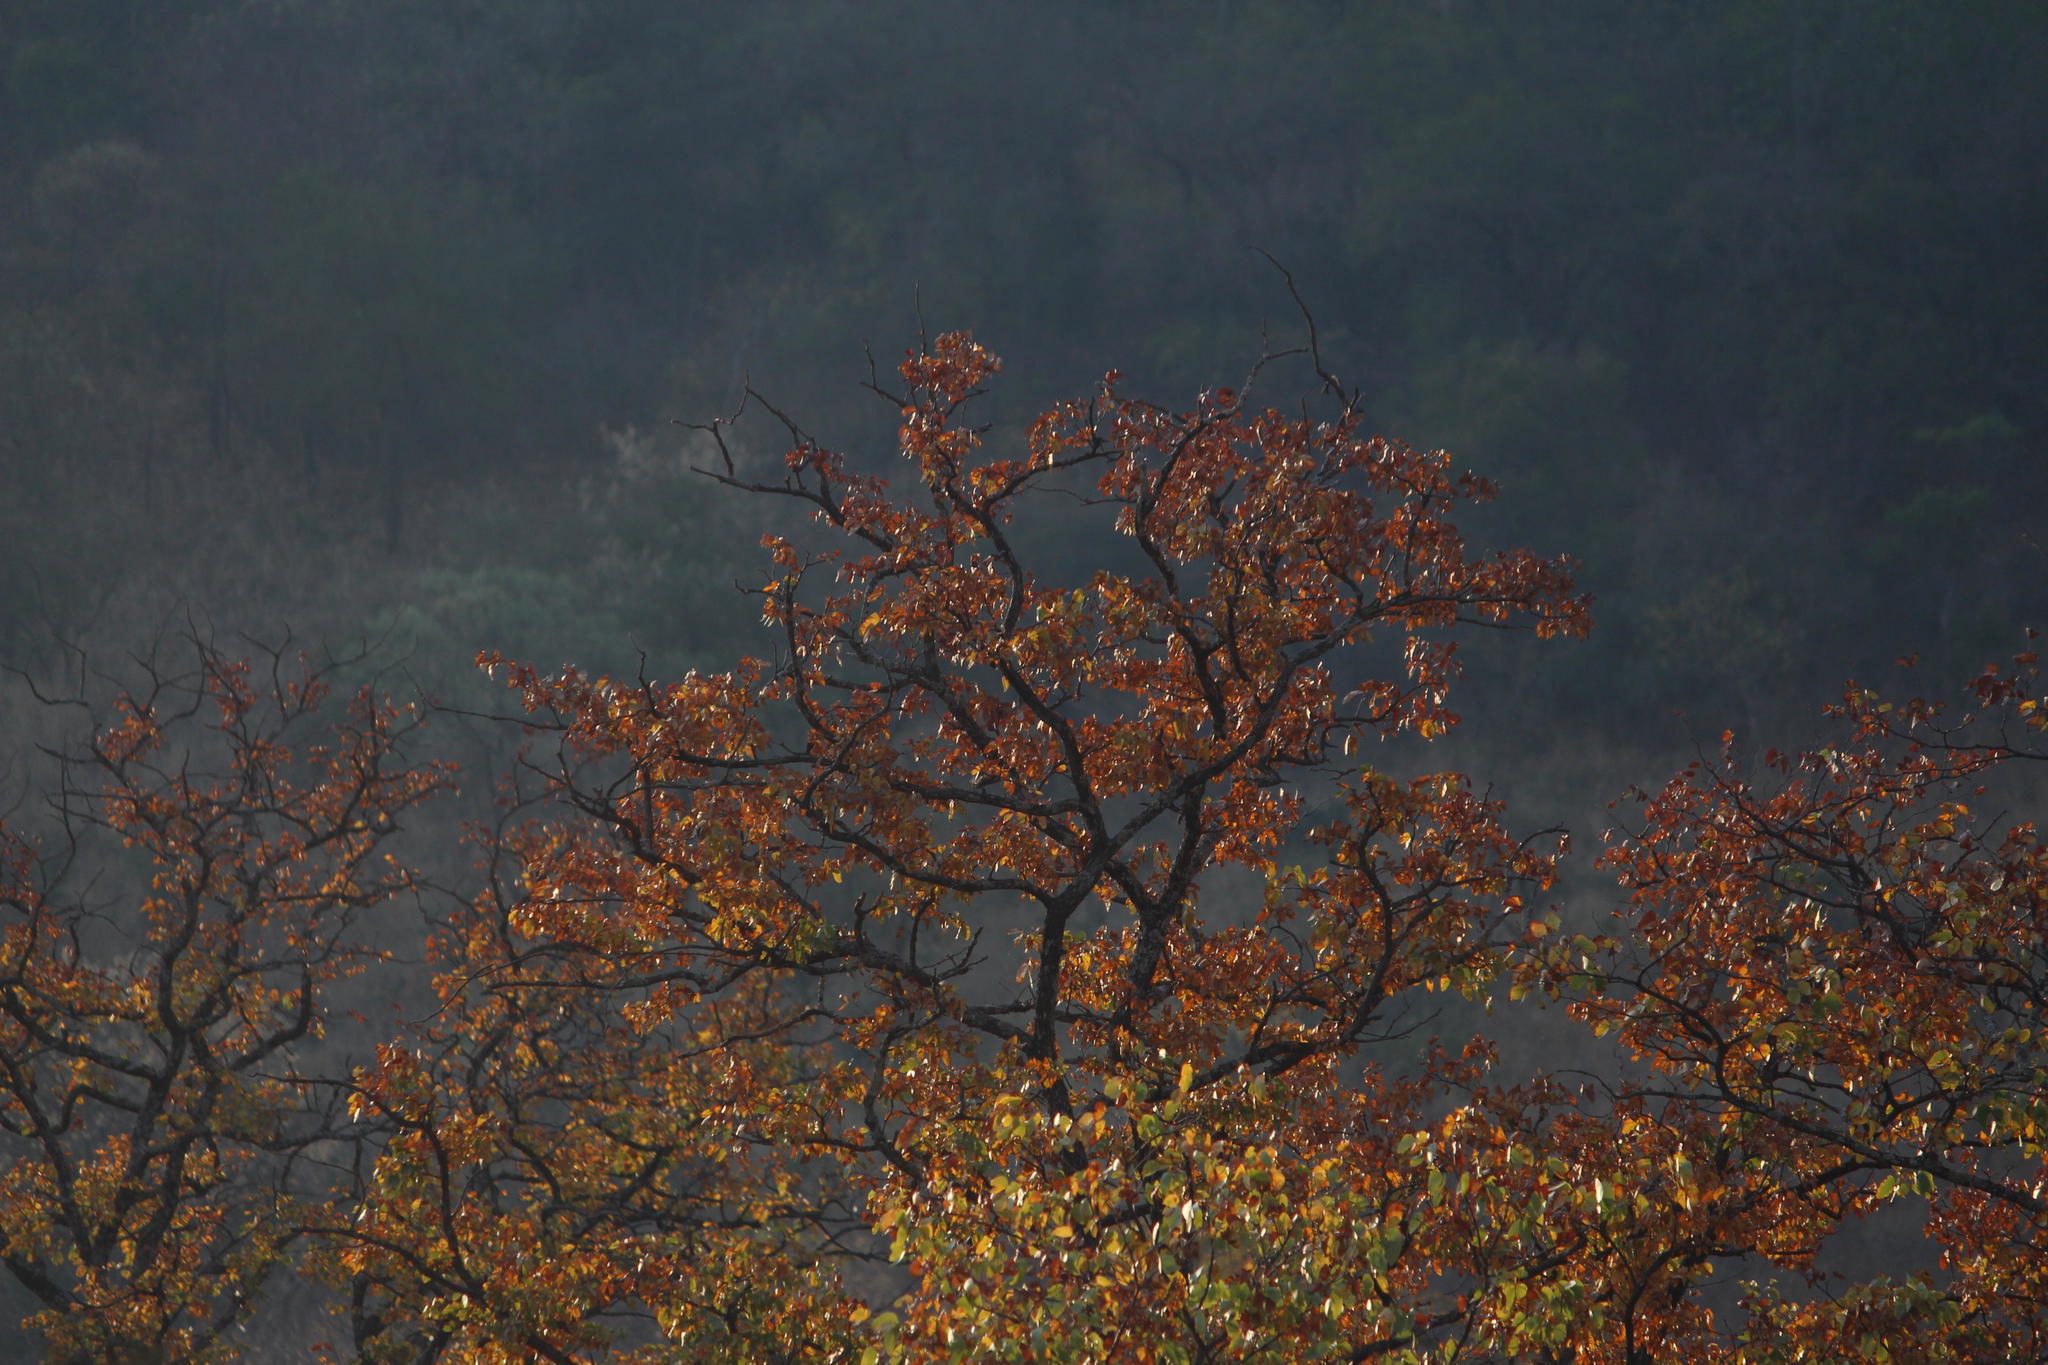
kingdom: Plantae
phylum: Tracheophyta
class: Magnoliopsida
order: Fabales
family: Fabaceae
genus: Colophospermum
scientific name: Colophospermum mopane
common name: Mopane
